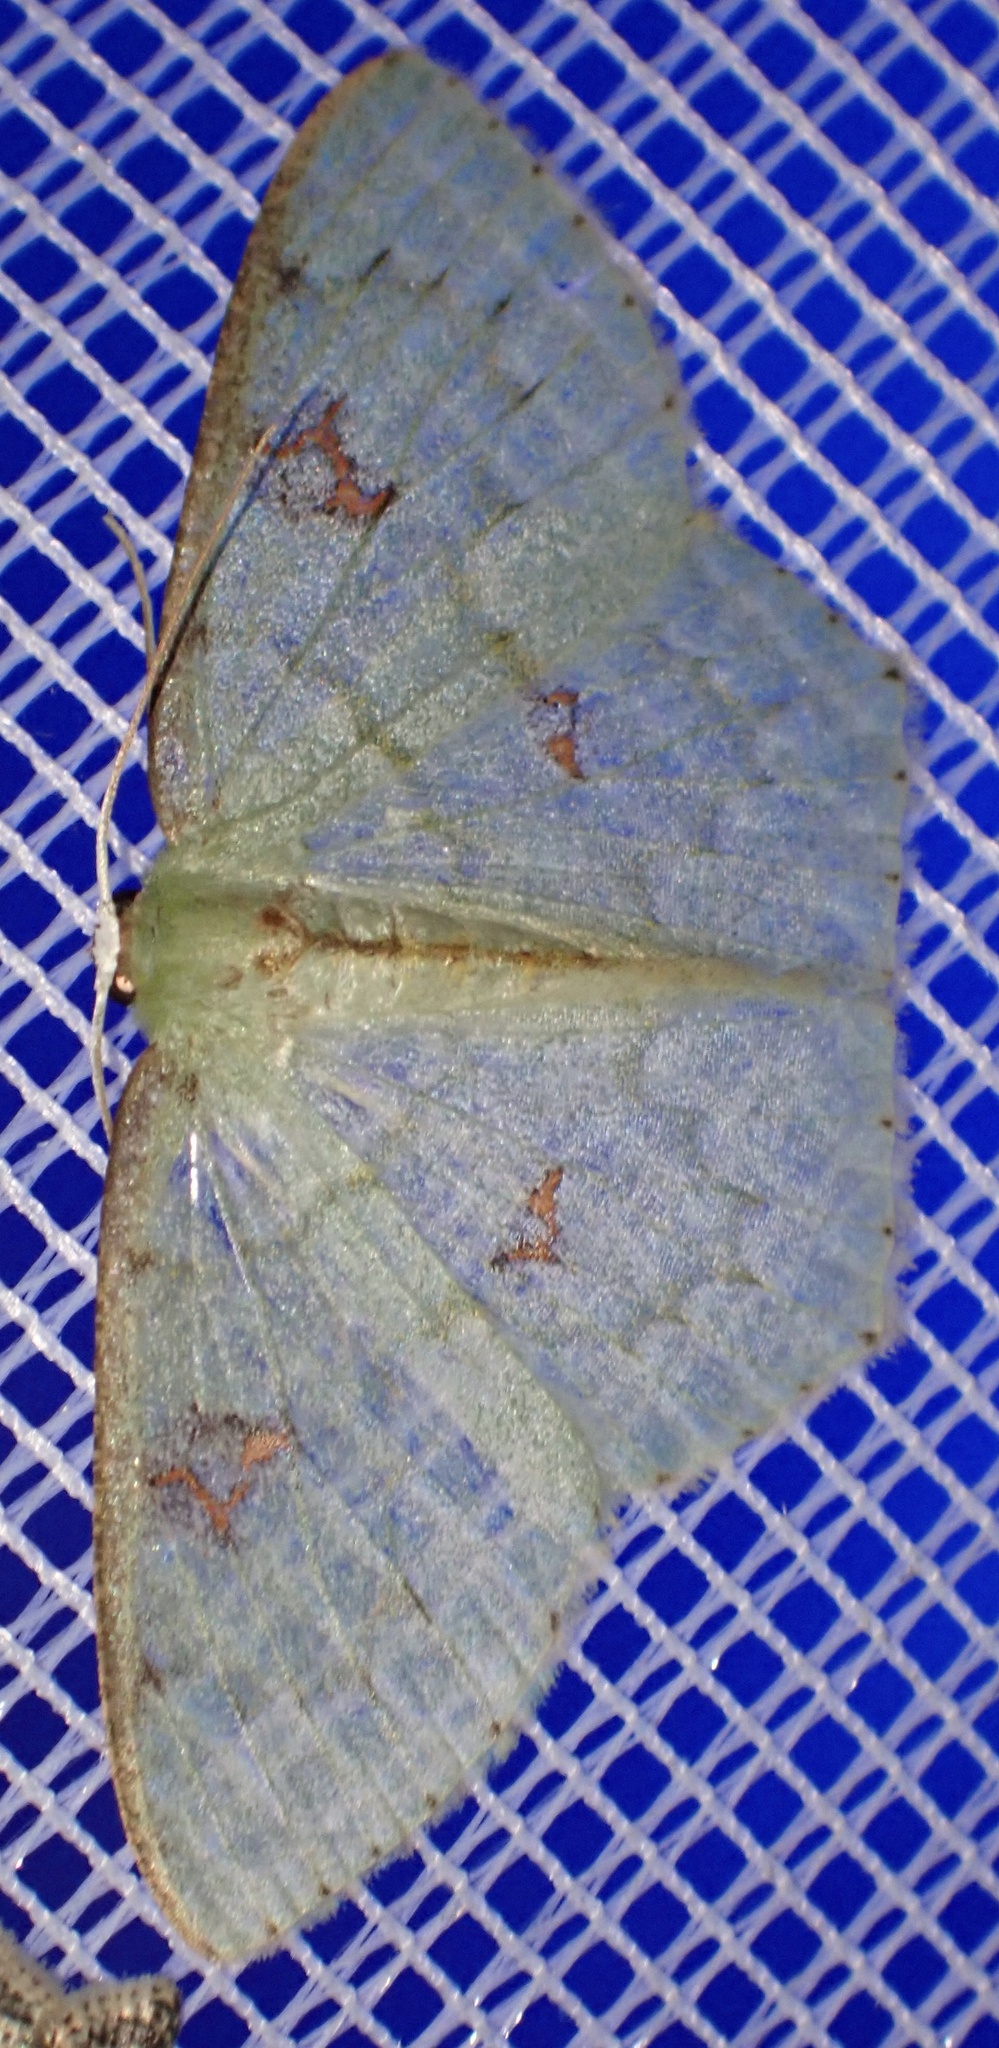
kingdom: Animalia
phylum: Arthropoda
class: Insecta
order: Lepidoptera
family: Geometridae
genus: Prasinocyma
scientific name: Prasinocyma
